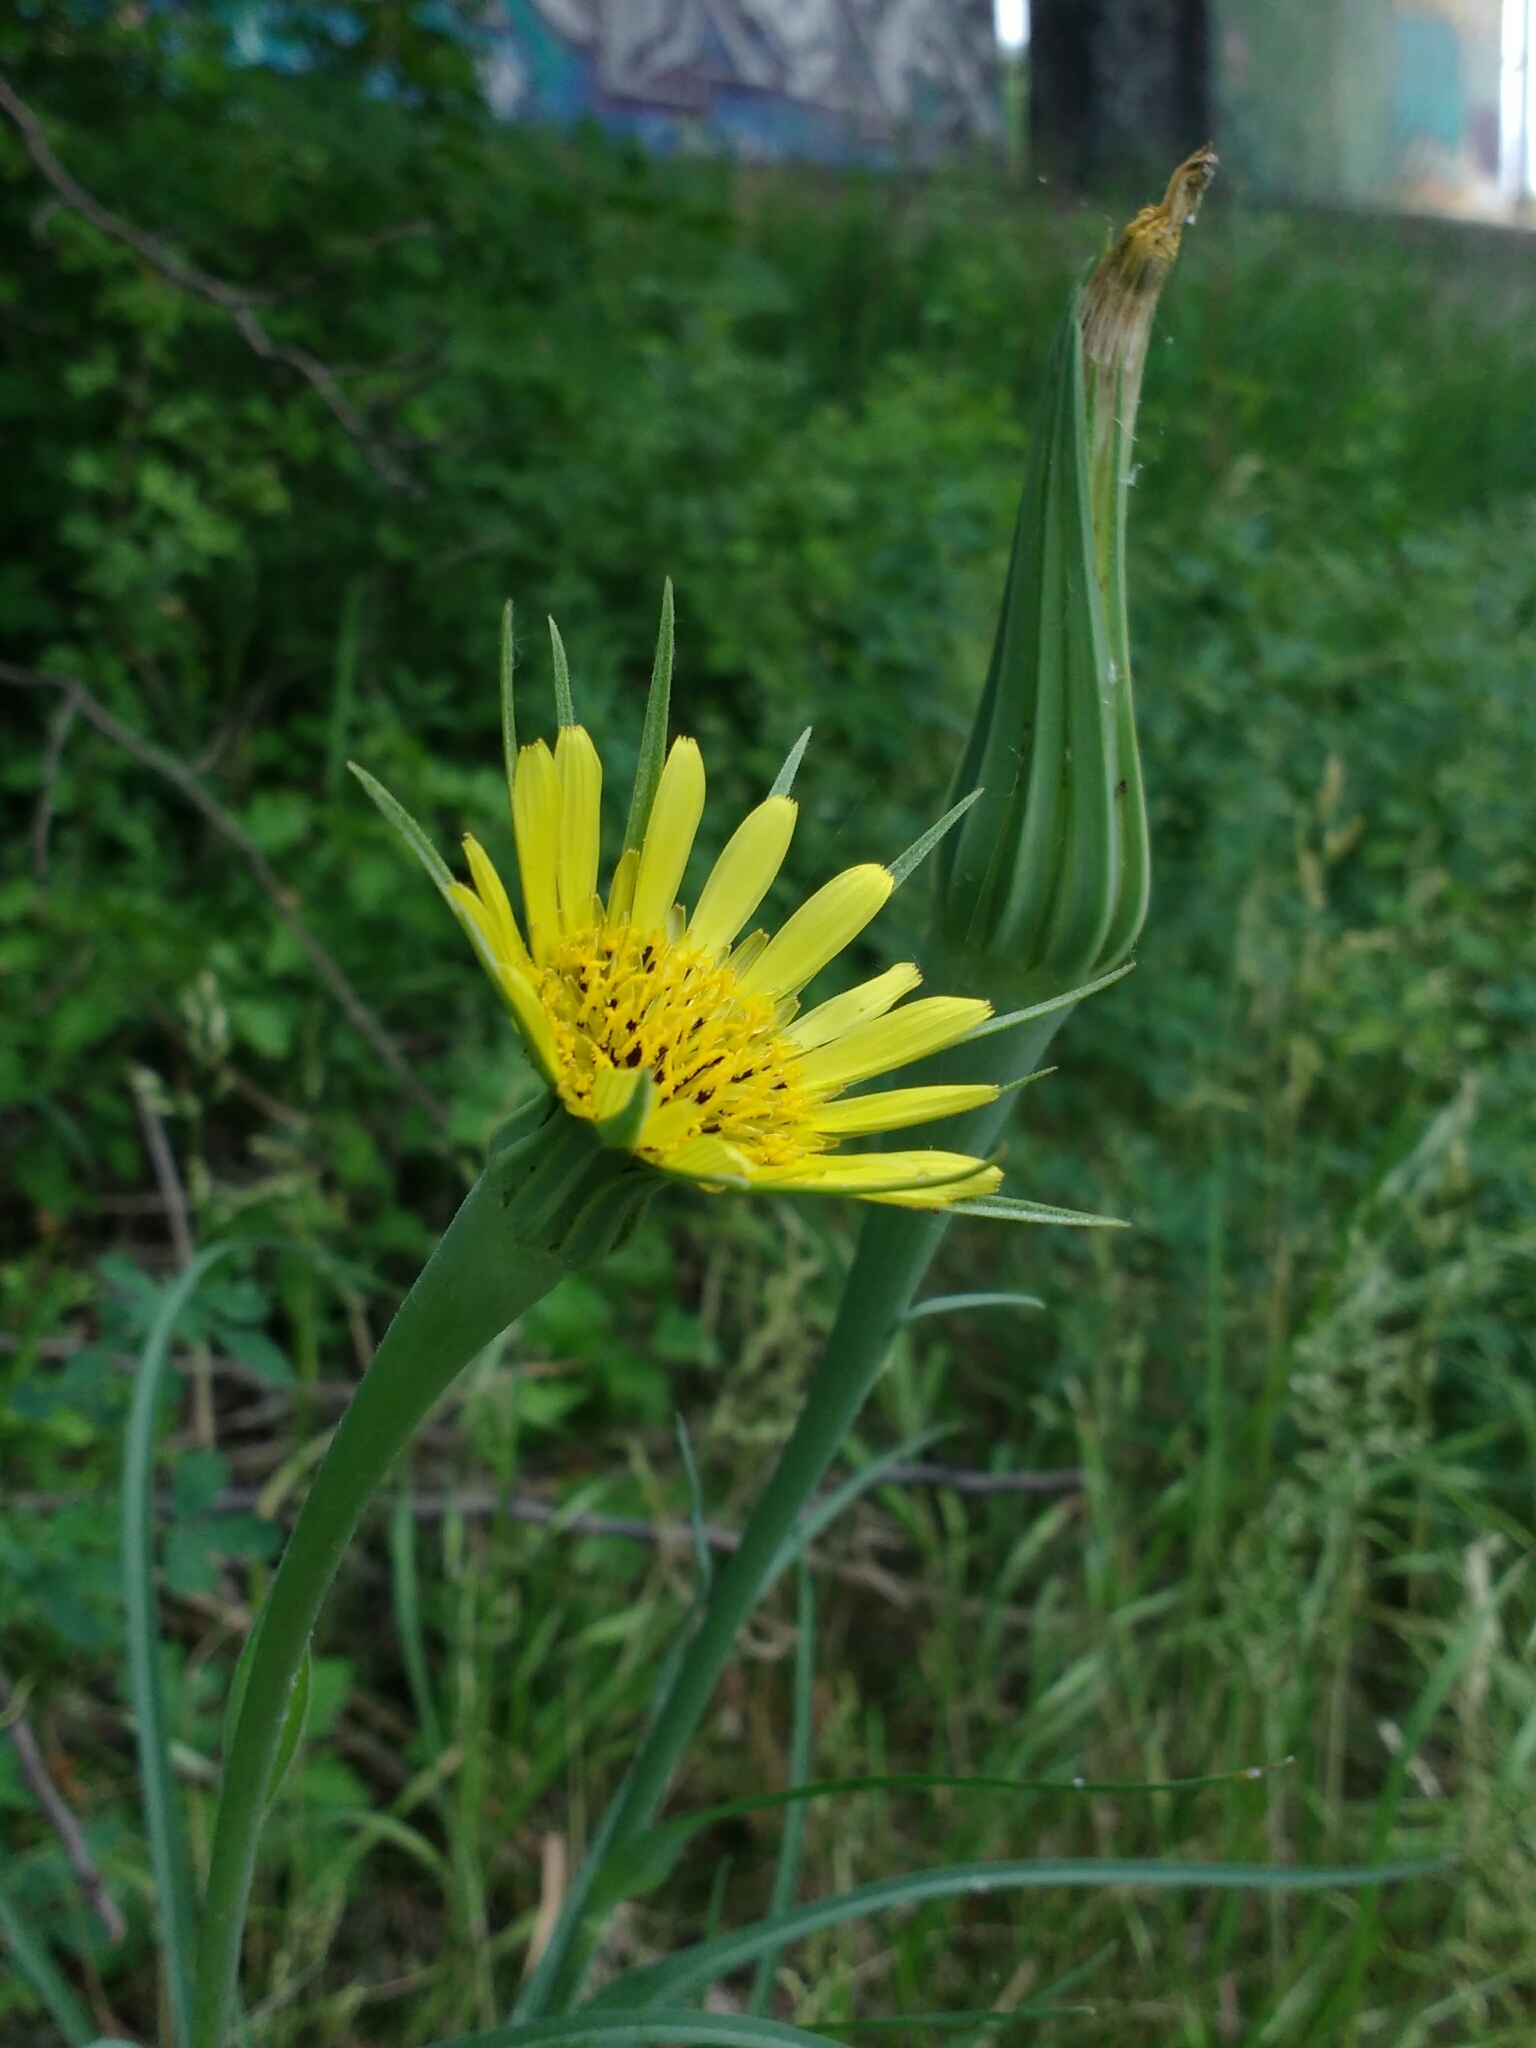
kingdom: Plantae
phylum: Tracheophyta
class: Magnoliopsida
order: Asterales
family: Asteraceae
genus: Tragopogon
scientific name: Tragopogon dubius
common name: Yellow salsify
